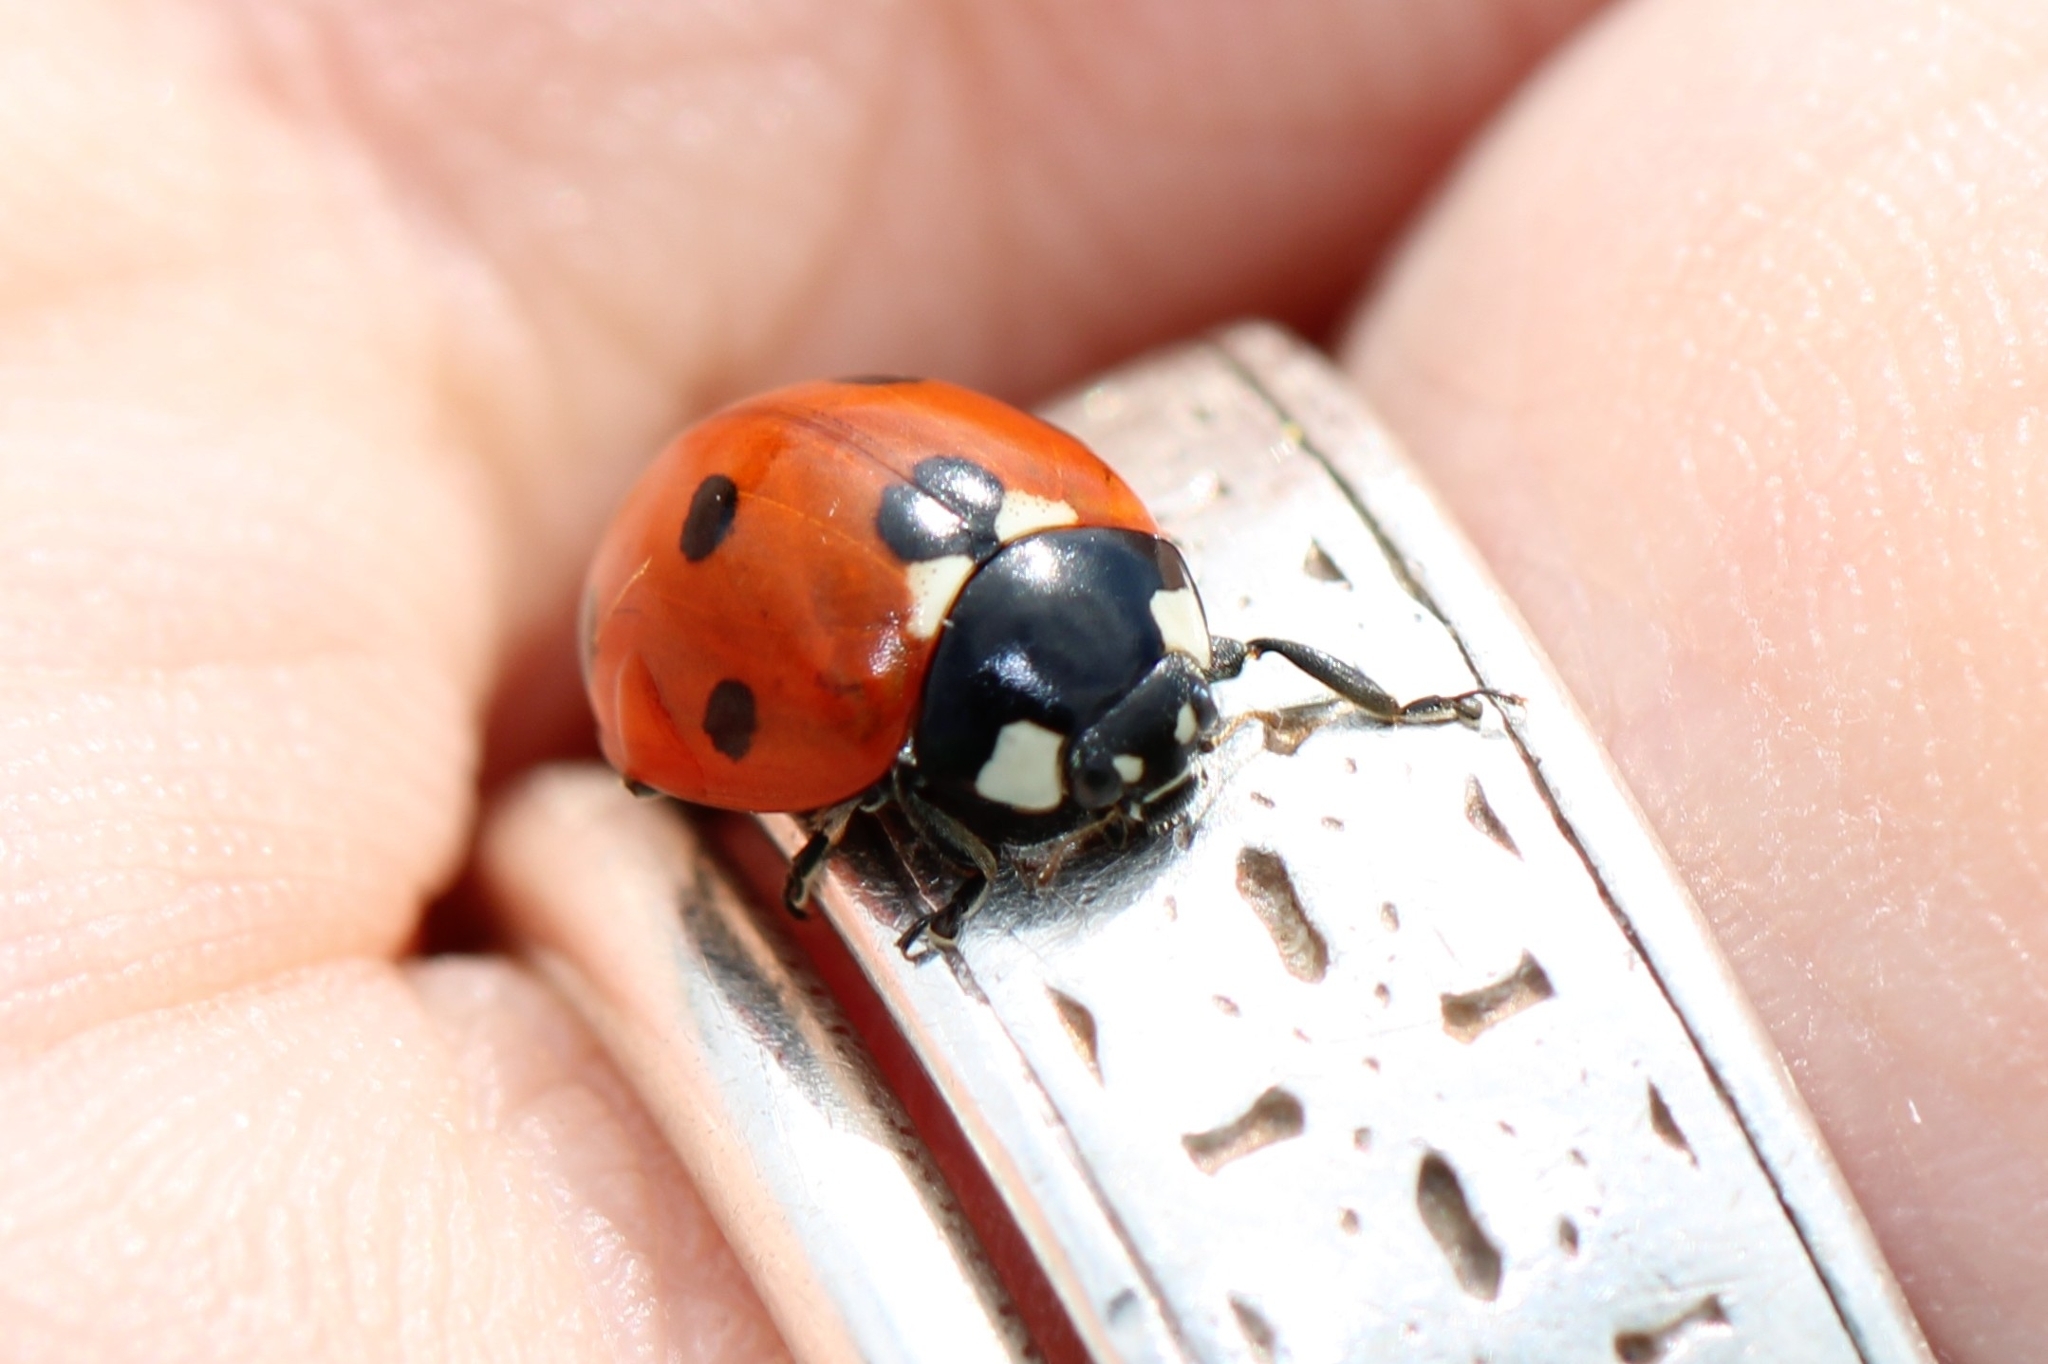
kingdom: Animalia
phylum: Arthropoda
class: Insecta
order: Coleoptera
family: Coccinellidae
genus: Coccinella
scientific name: Coccinella septempunctata
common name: Sevenspotted lady beetle
